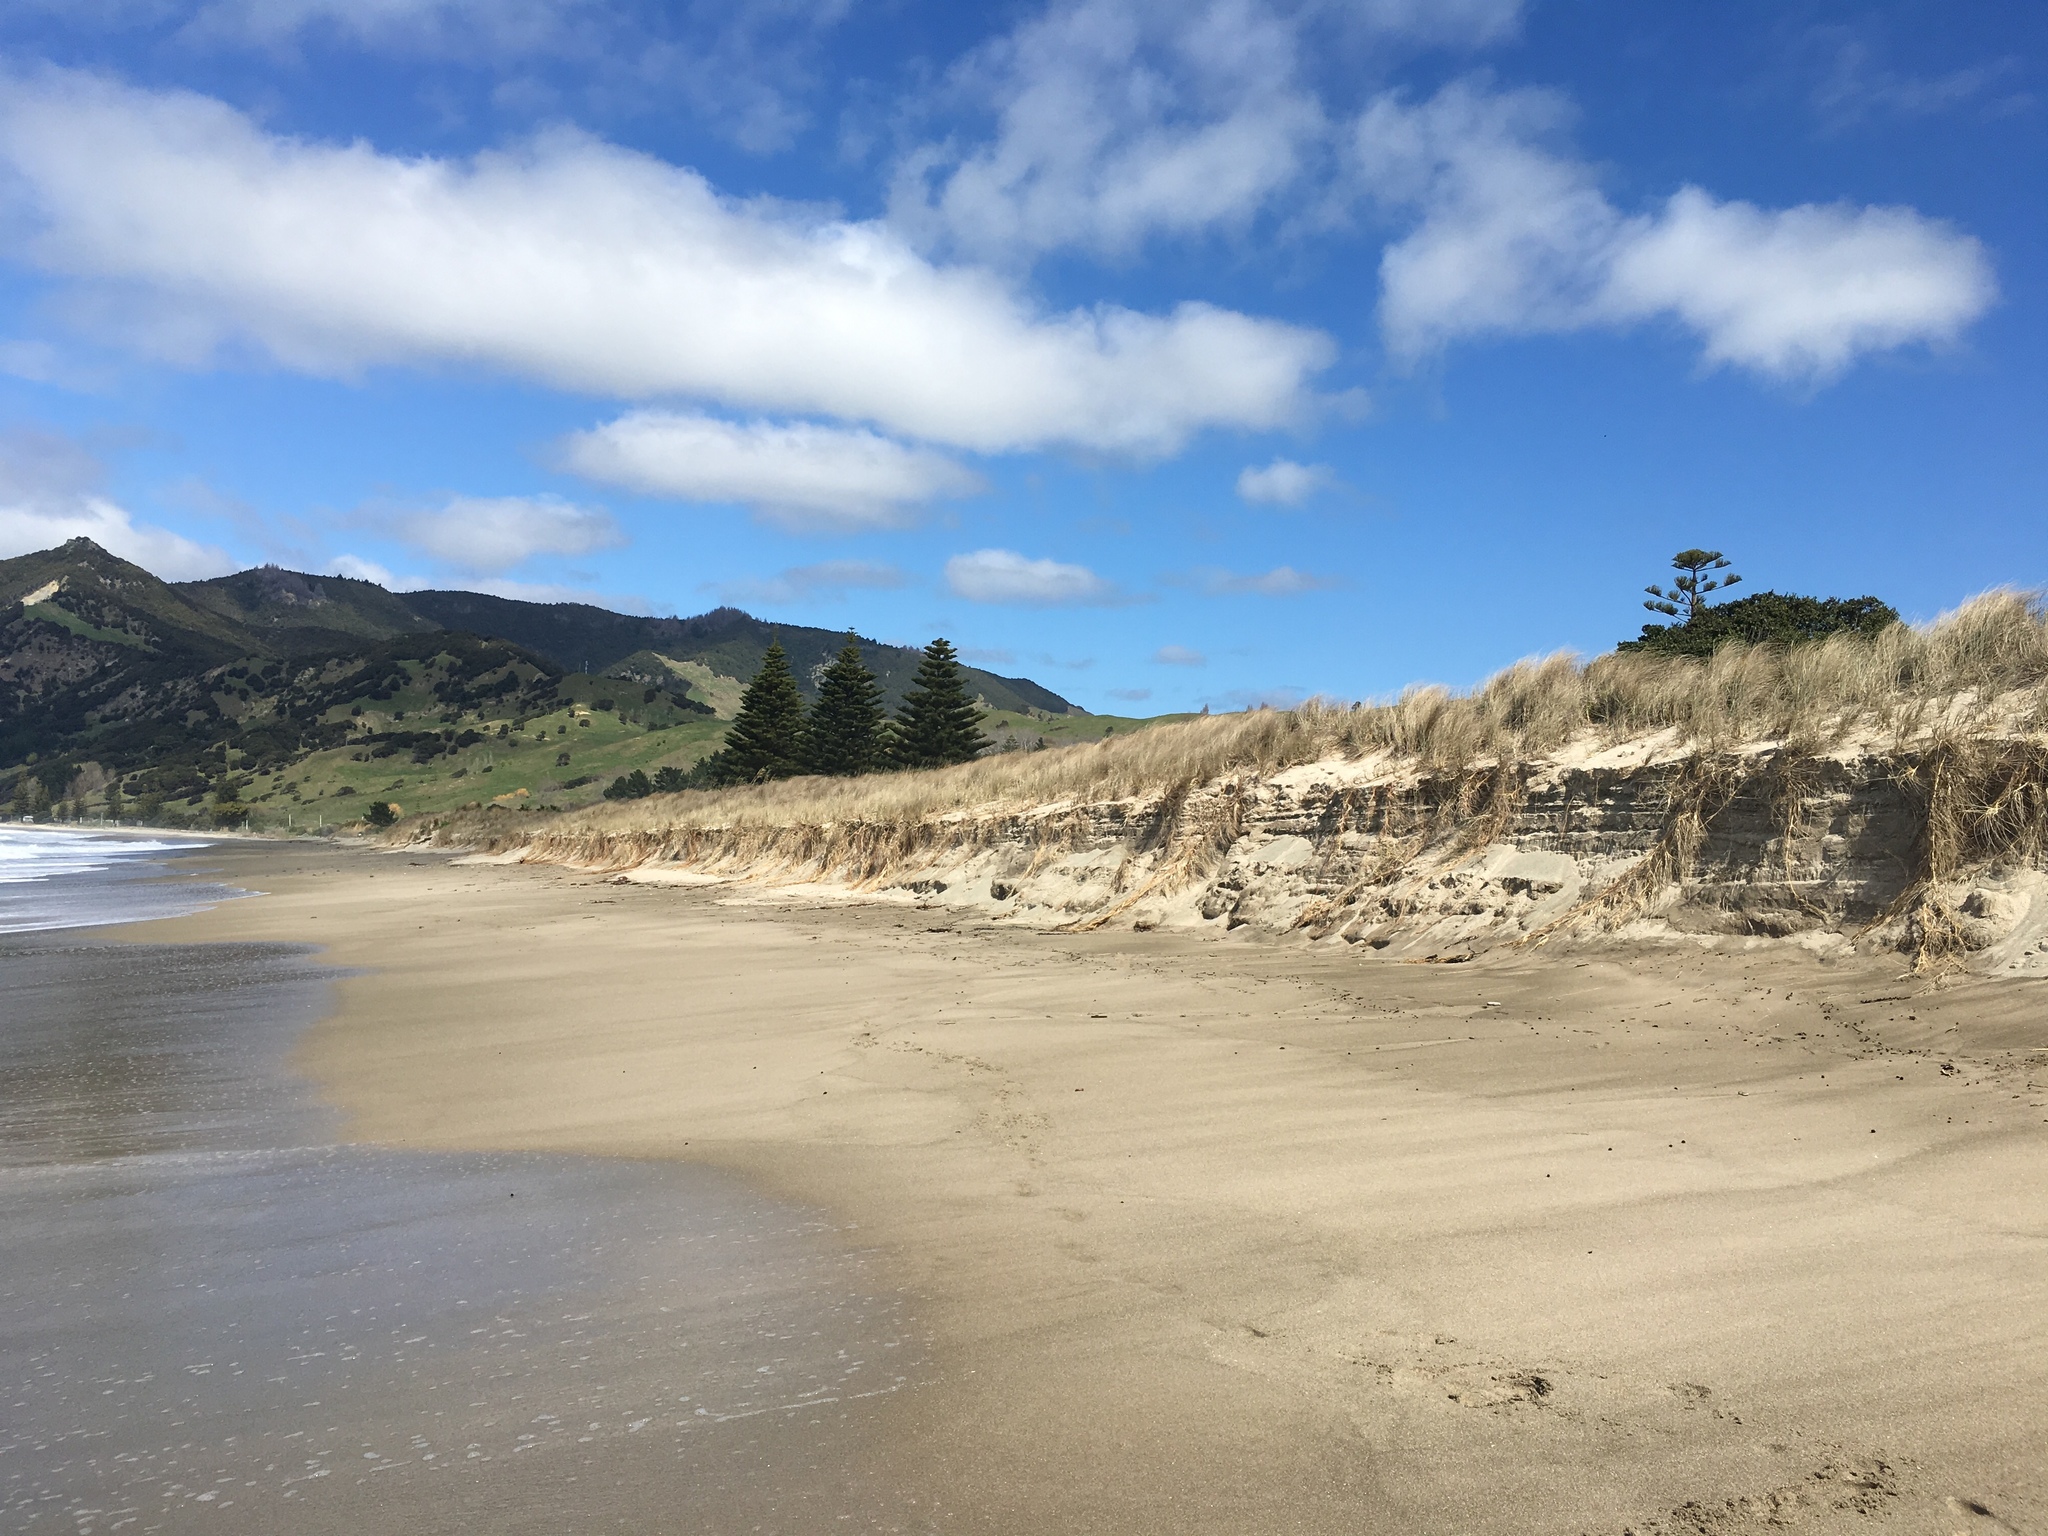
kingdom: Plantae
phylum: Tracheophyta
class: Liliopsida
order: Poales
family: Poaceae
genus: Spinifex
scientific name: Spinifex sericeus
